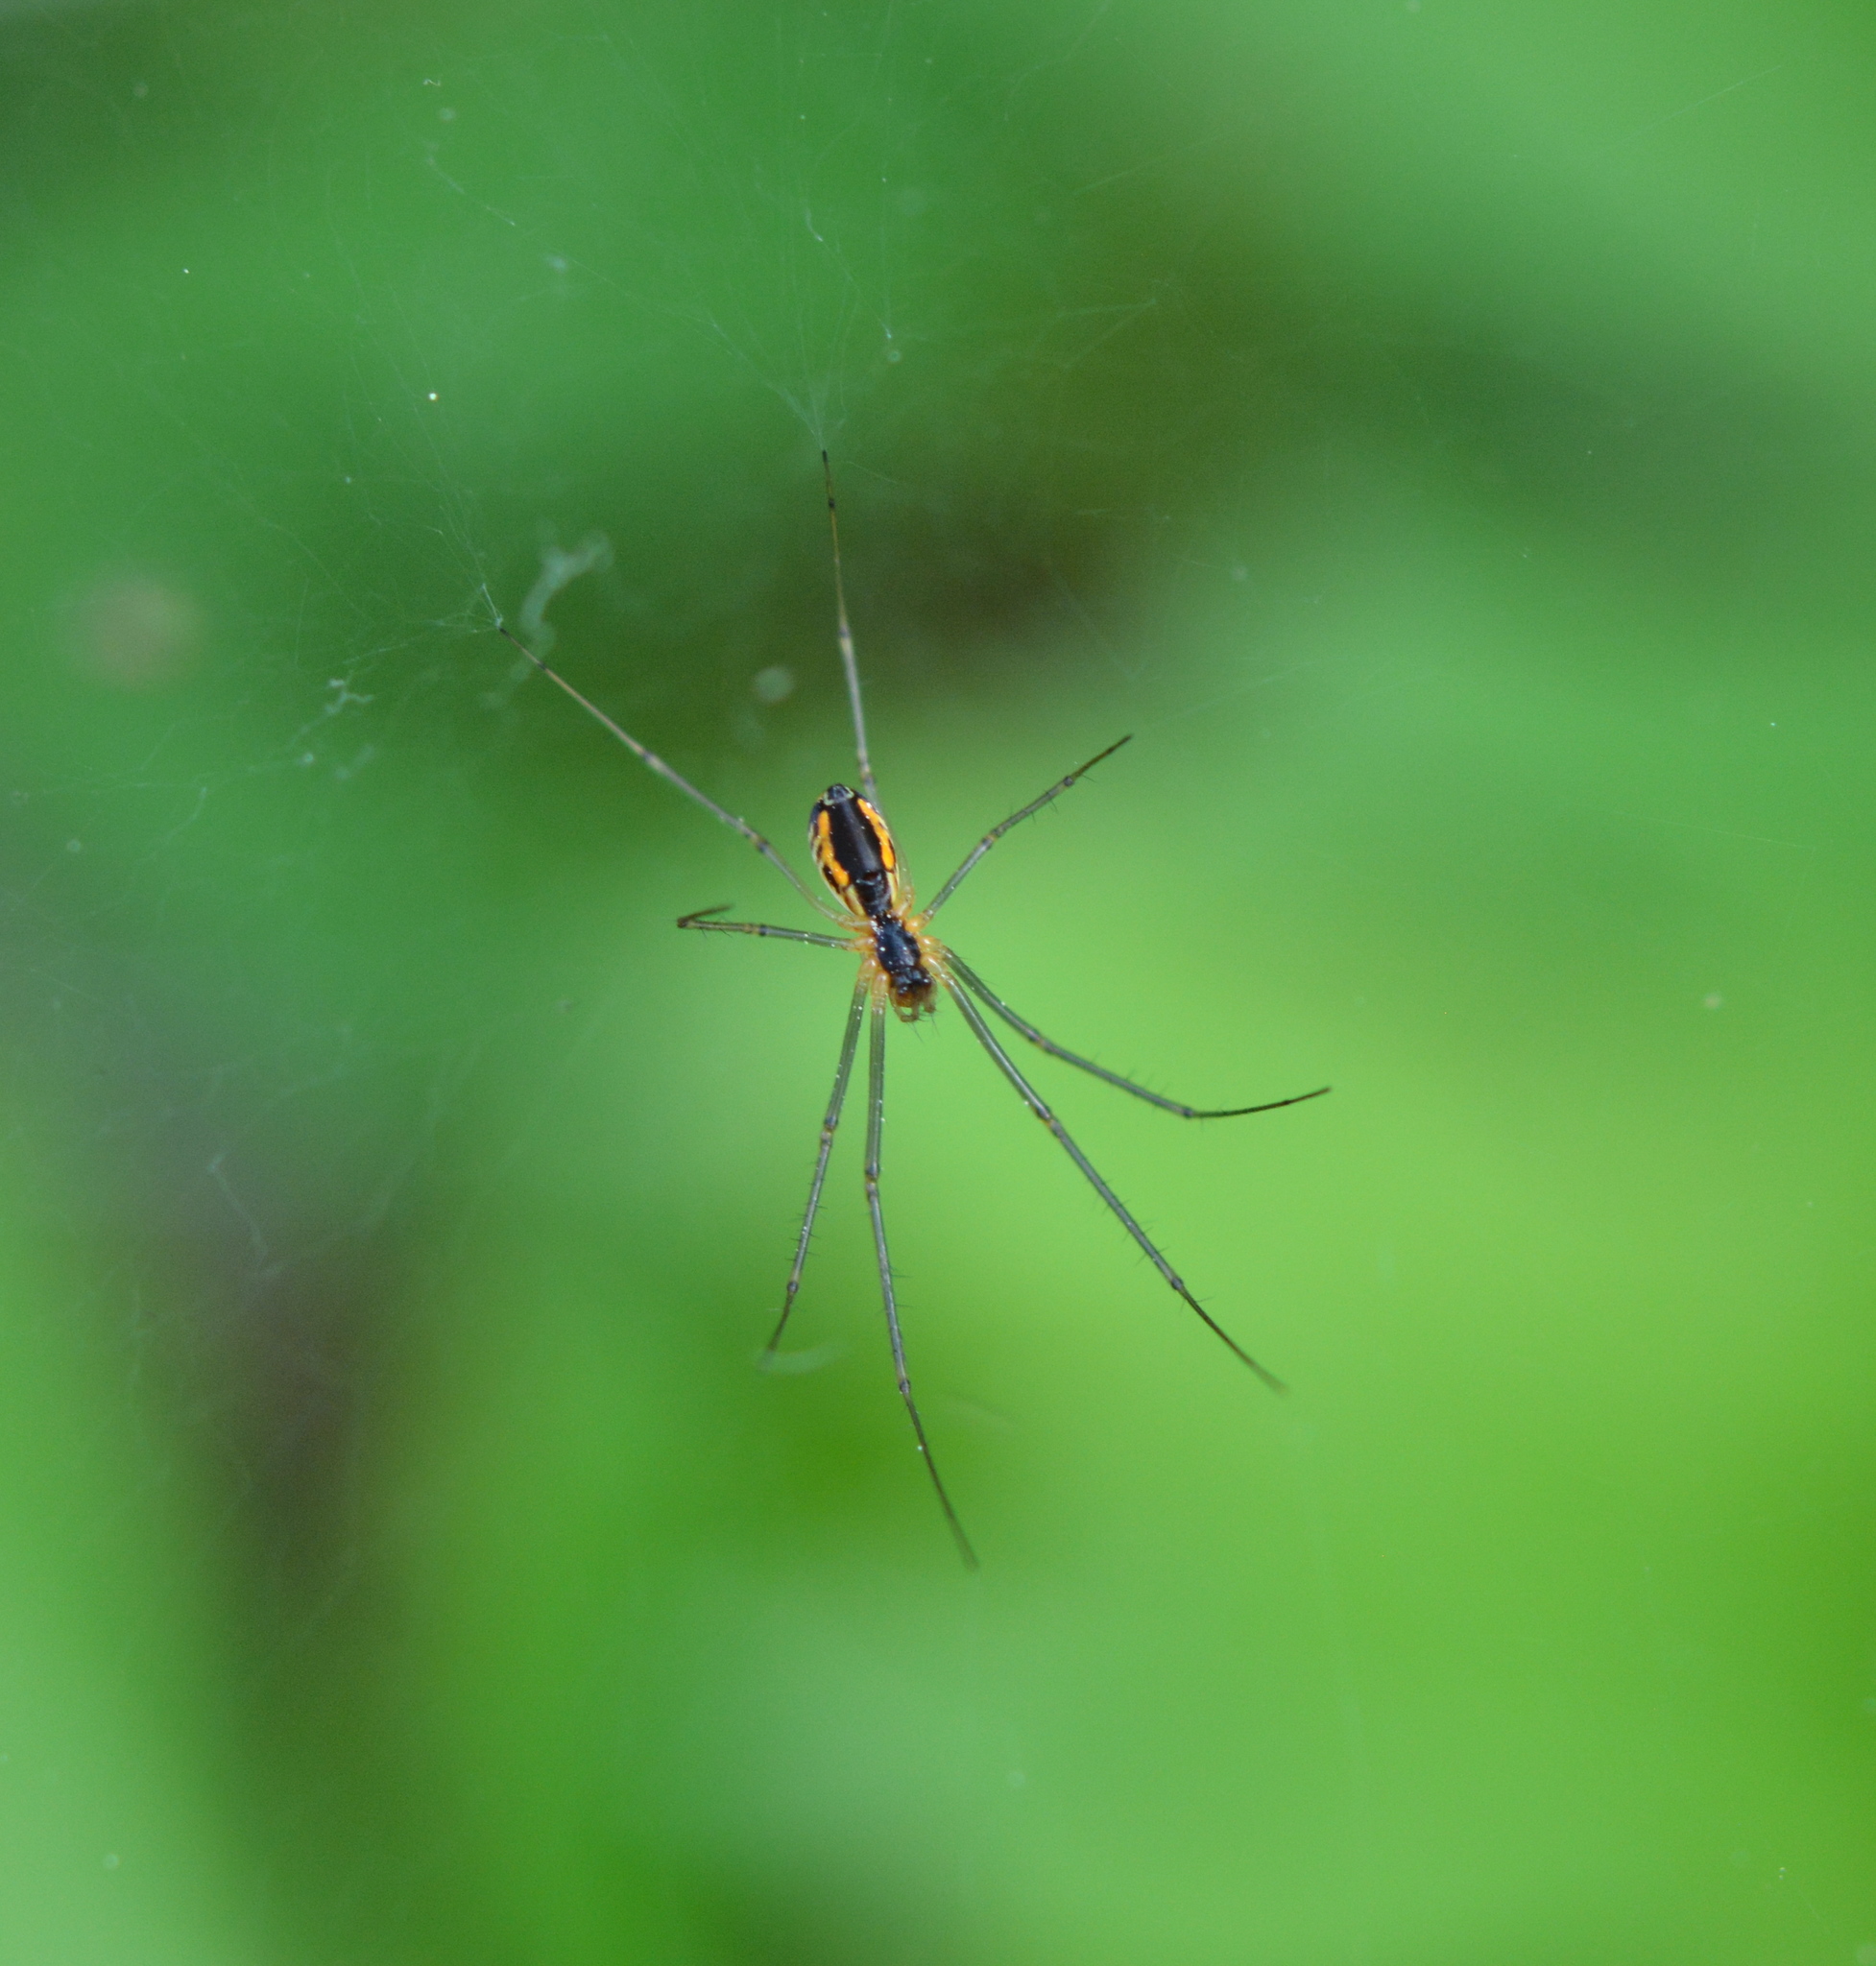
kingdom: Animalia
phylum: Arthropoda
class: Arachnida
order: Araneae
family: Linyphiidae
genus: Neriene
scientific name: Neriene radiata
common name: Filmy dome spider
